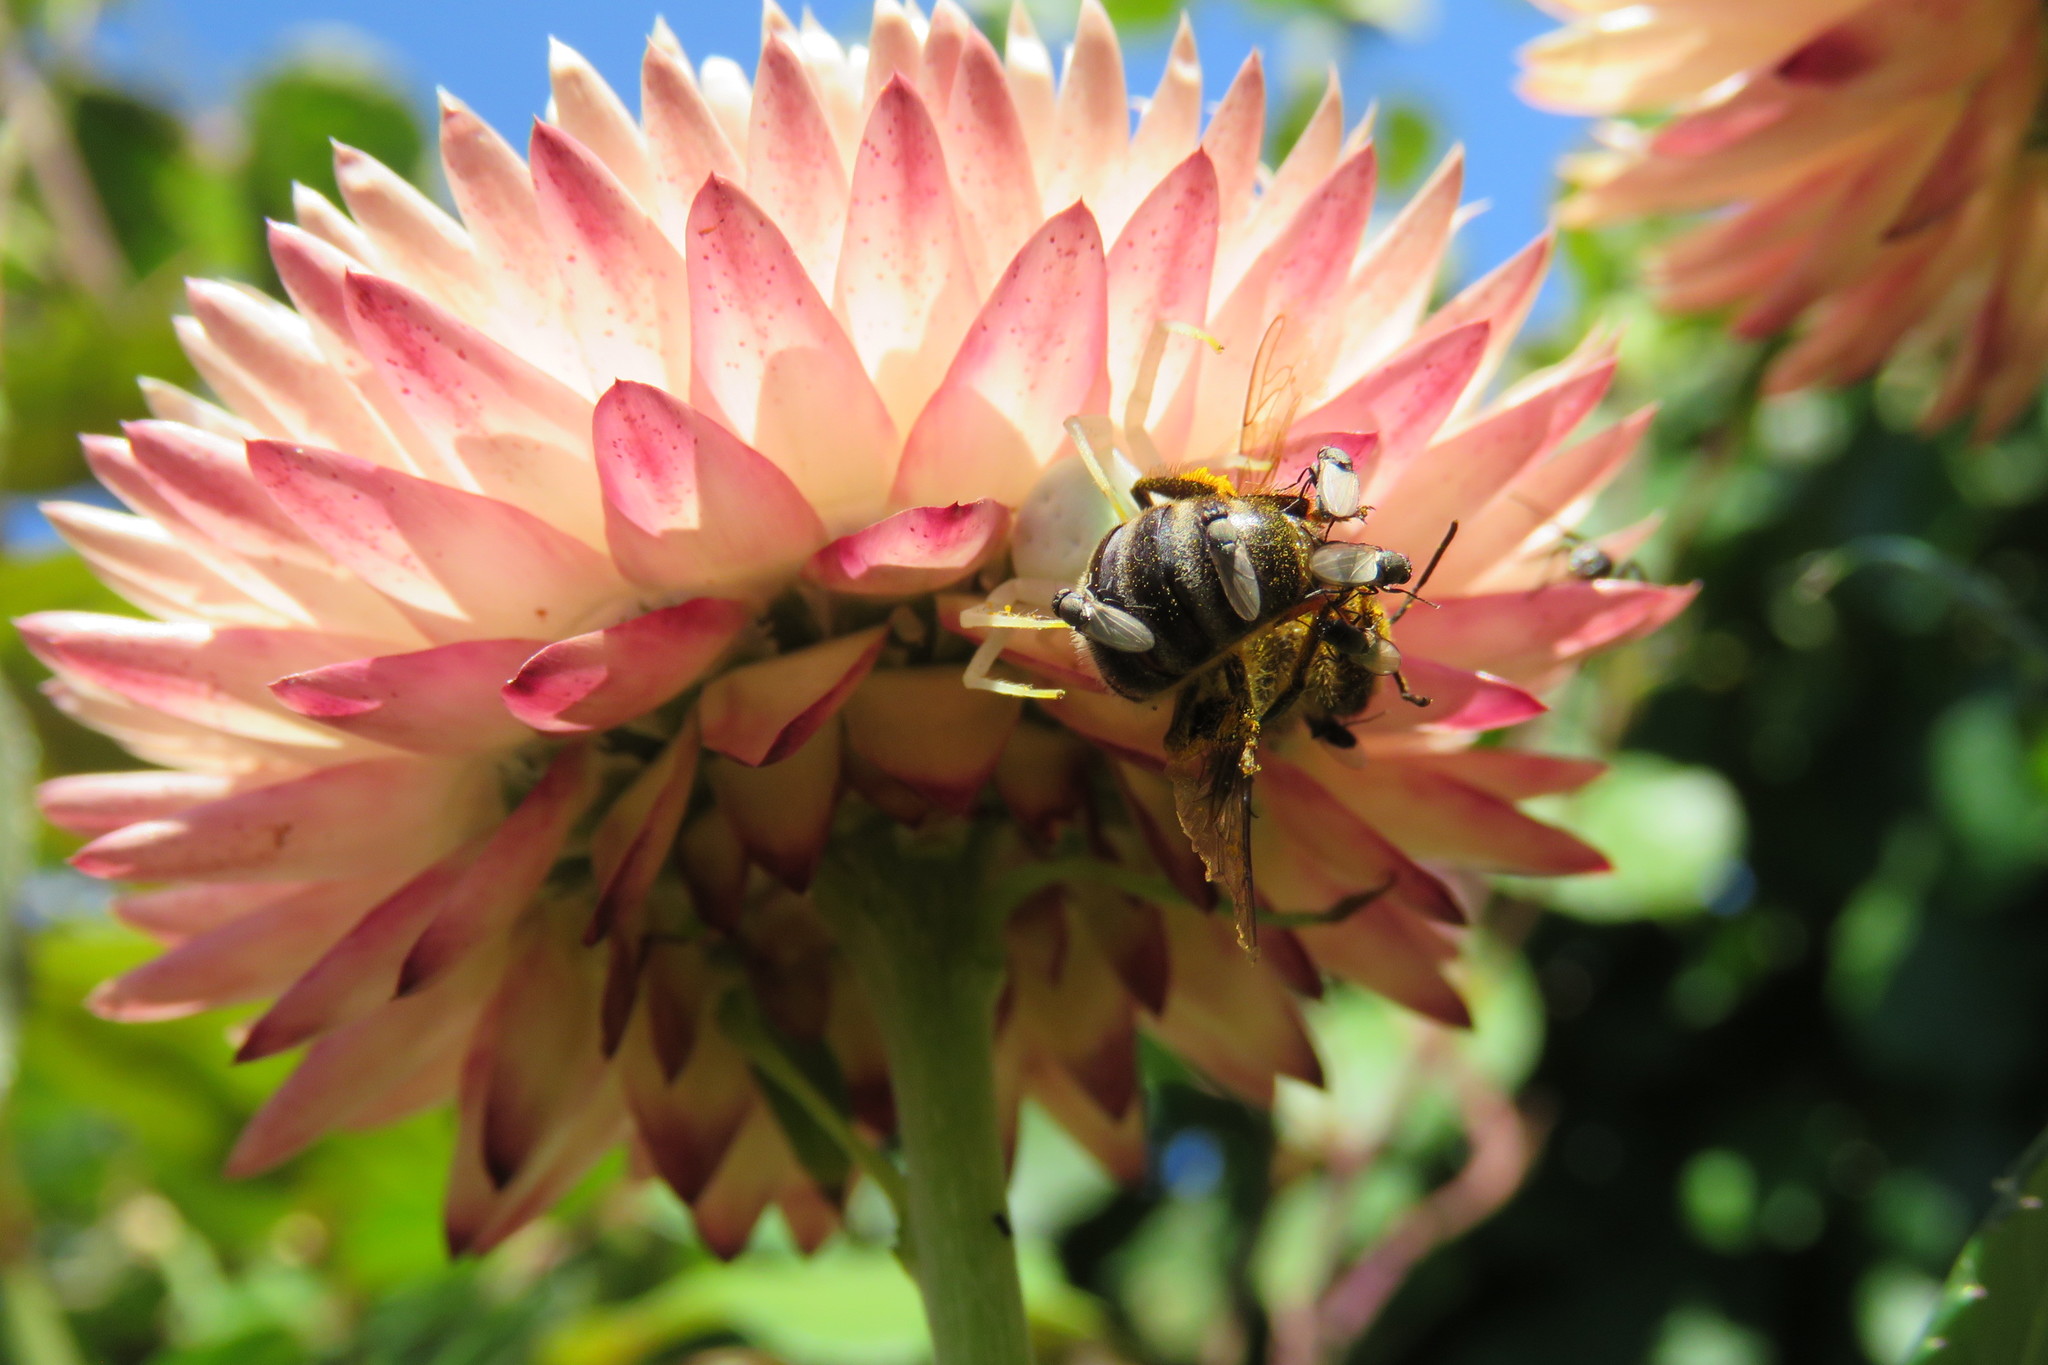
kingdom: Animalia
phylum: Arthropoda
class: Arachnida
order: Araneae
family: Thomisidae
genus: Misumena
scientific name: Misumena vatia
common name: Goldenrod crab spider
